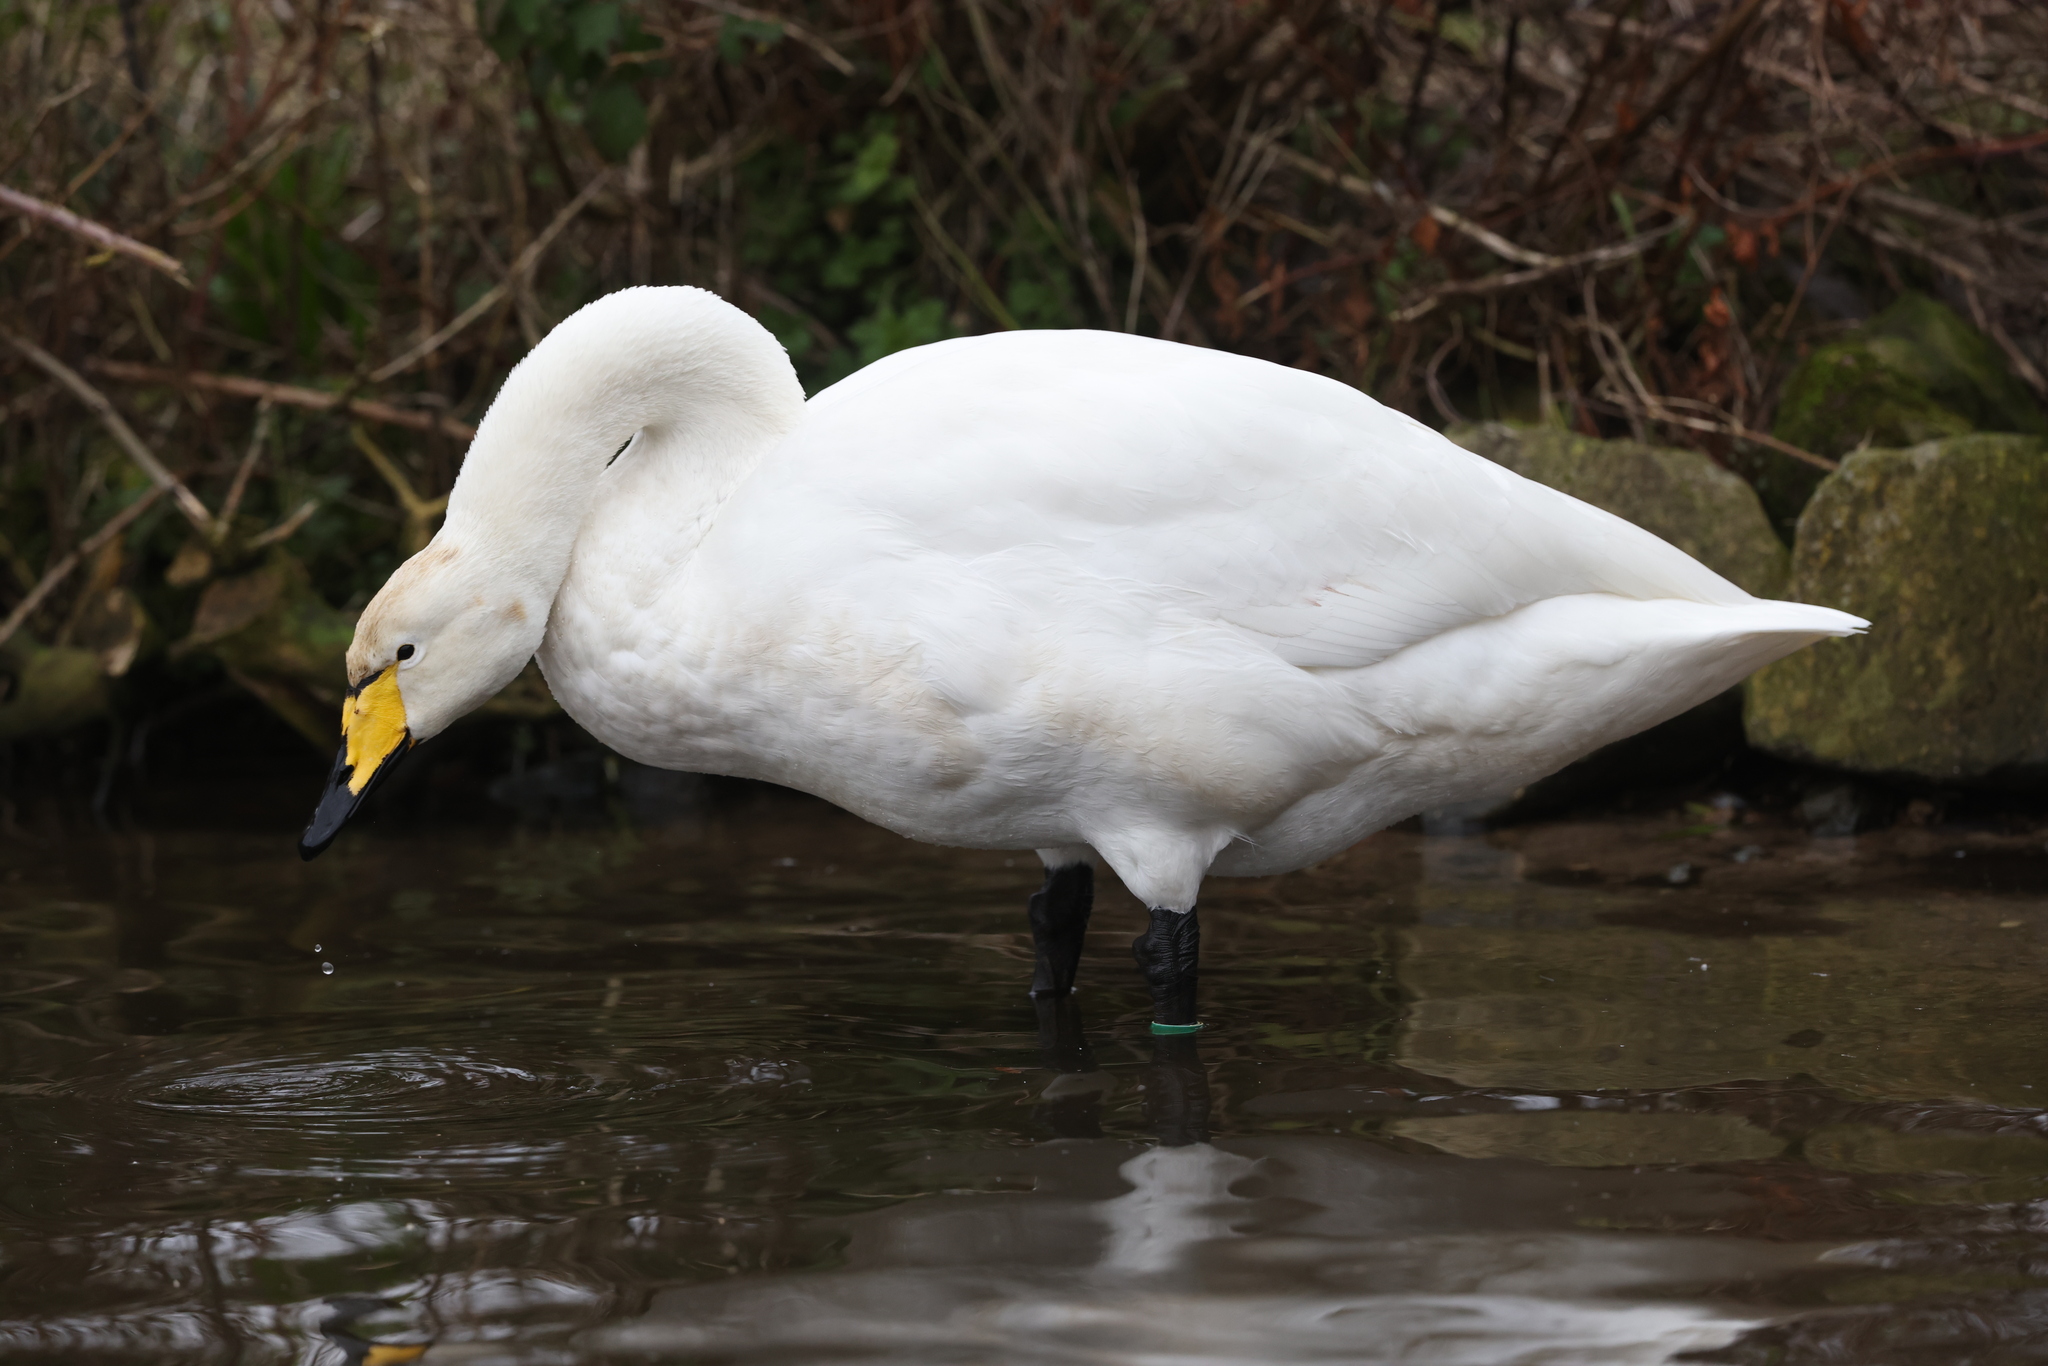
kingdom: Animalia
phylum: Chordata
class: Aves
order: Anseriformes
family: Anatidae
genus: Cygnus
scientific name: Cygnus cygnus
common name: Whooper swan
